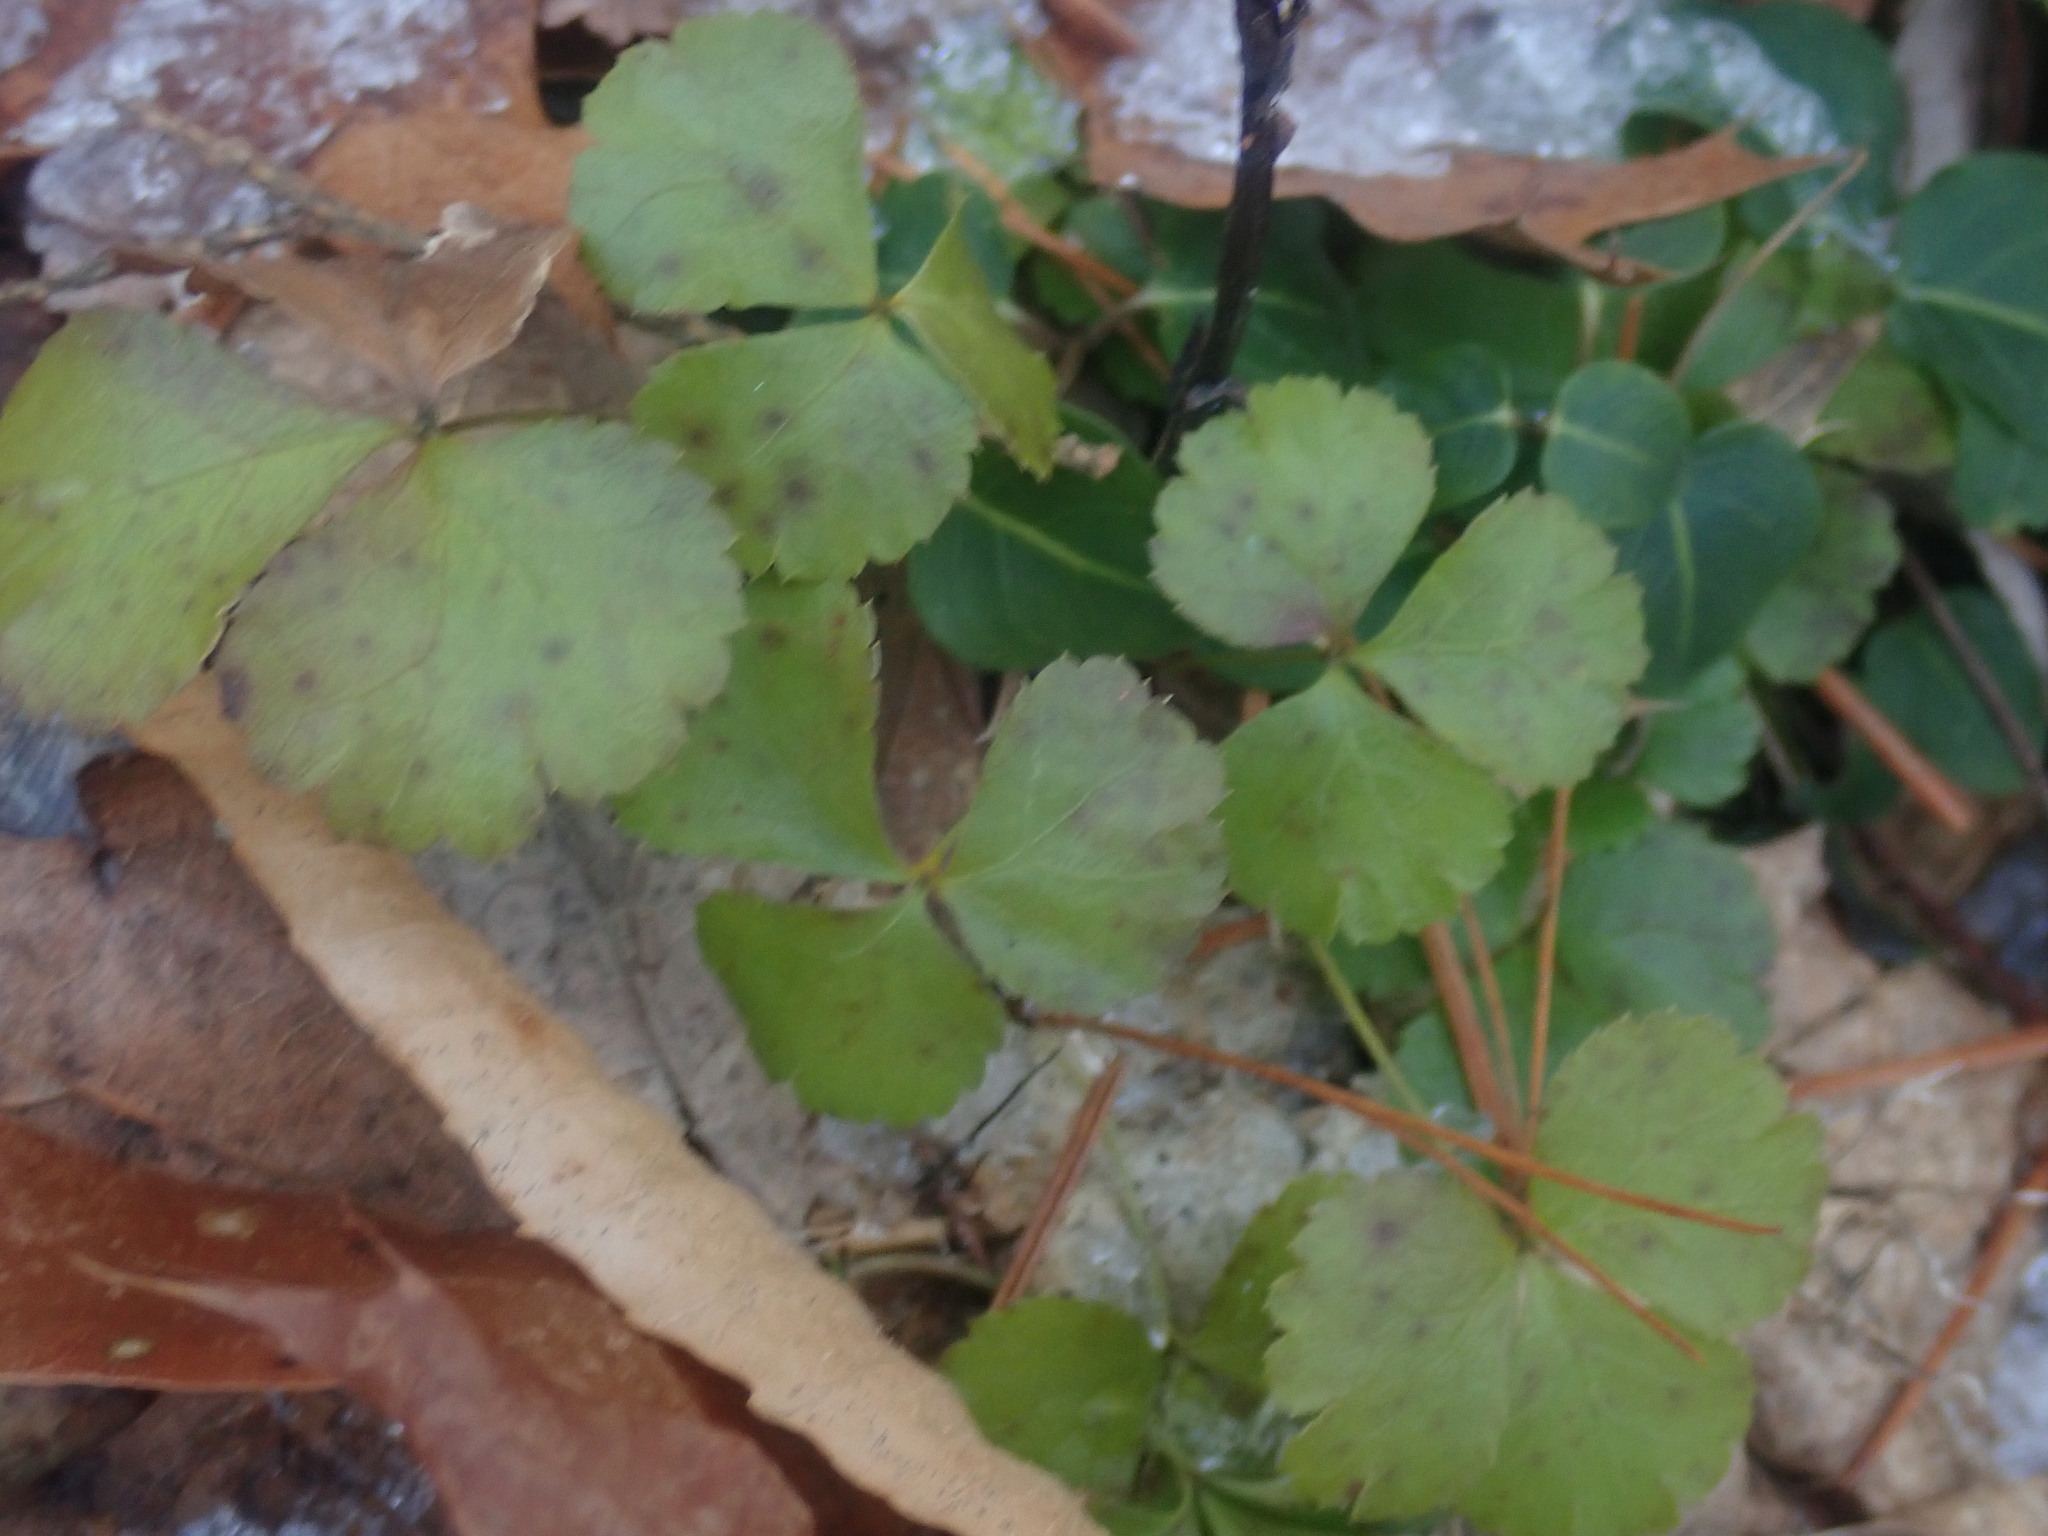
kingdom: Plantae
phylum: Tracheophyta
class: Magnoliopsida
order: Ranunculales
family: Ranunculaceae
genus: Coptis
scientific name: Coptis trifolia
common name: Canker-root
